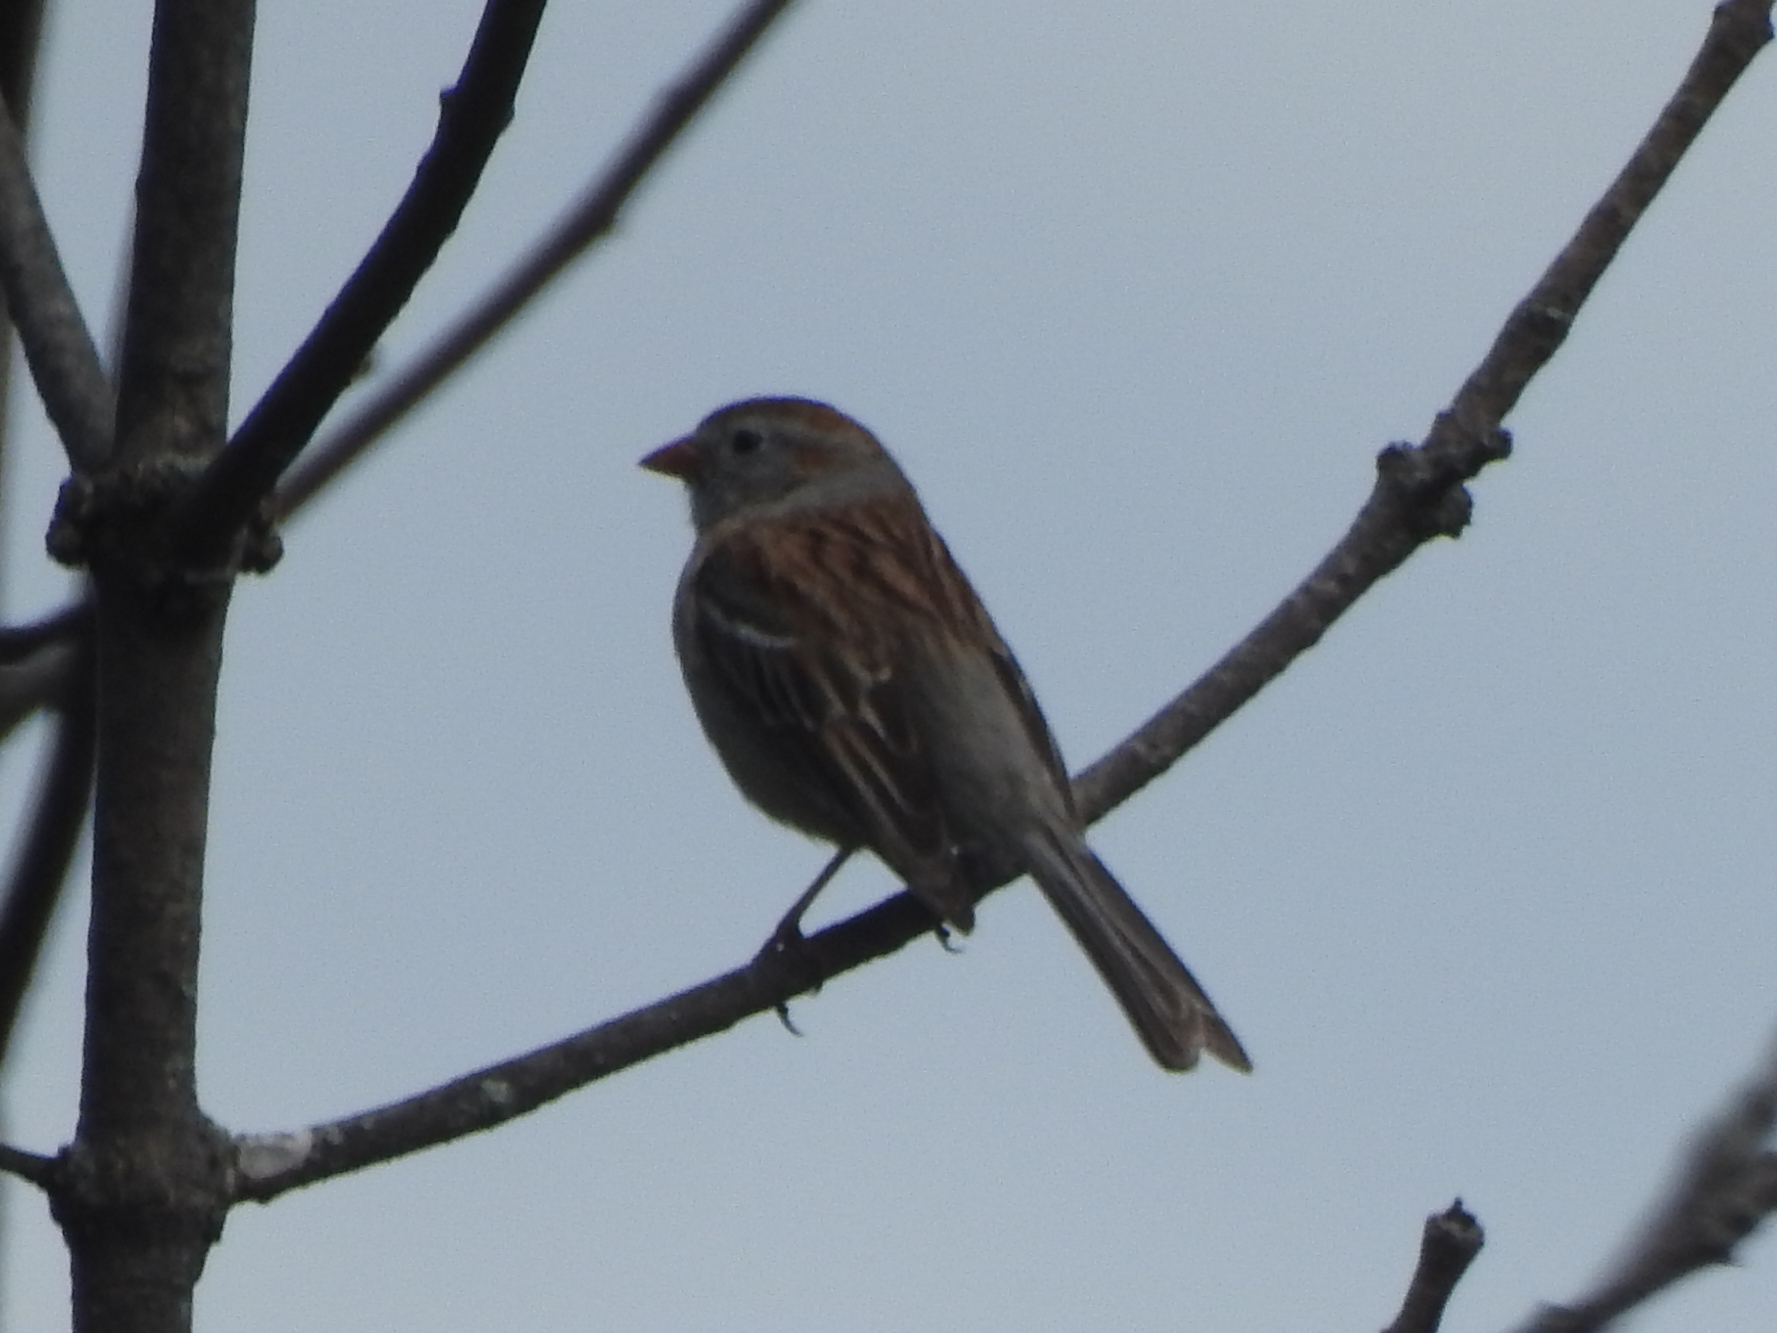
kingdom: Animalia
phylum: Chordata
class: Aves
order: Passeriformes
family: Passerellidae
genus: Spizella
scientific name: Spizella pusilla
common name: Field sparrow
